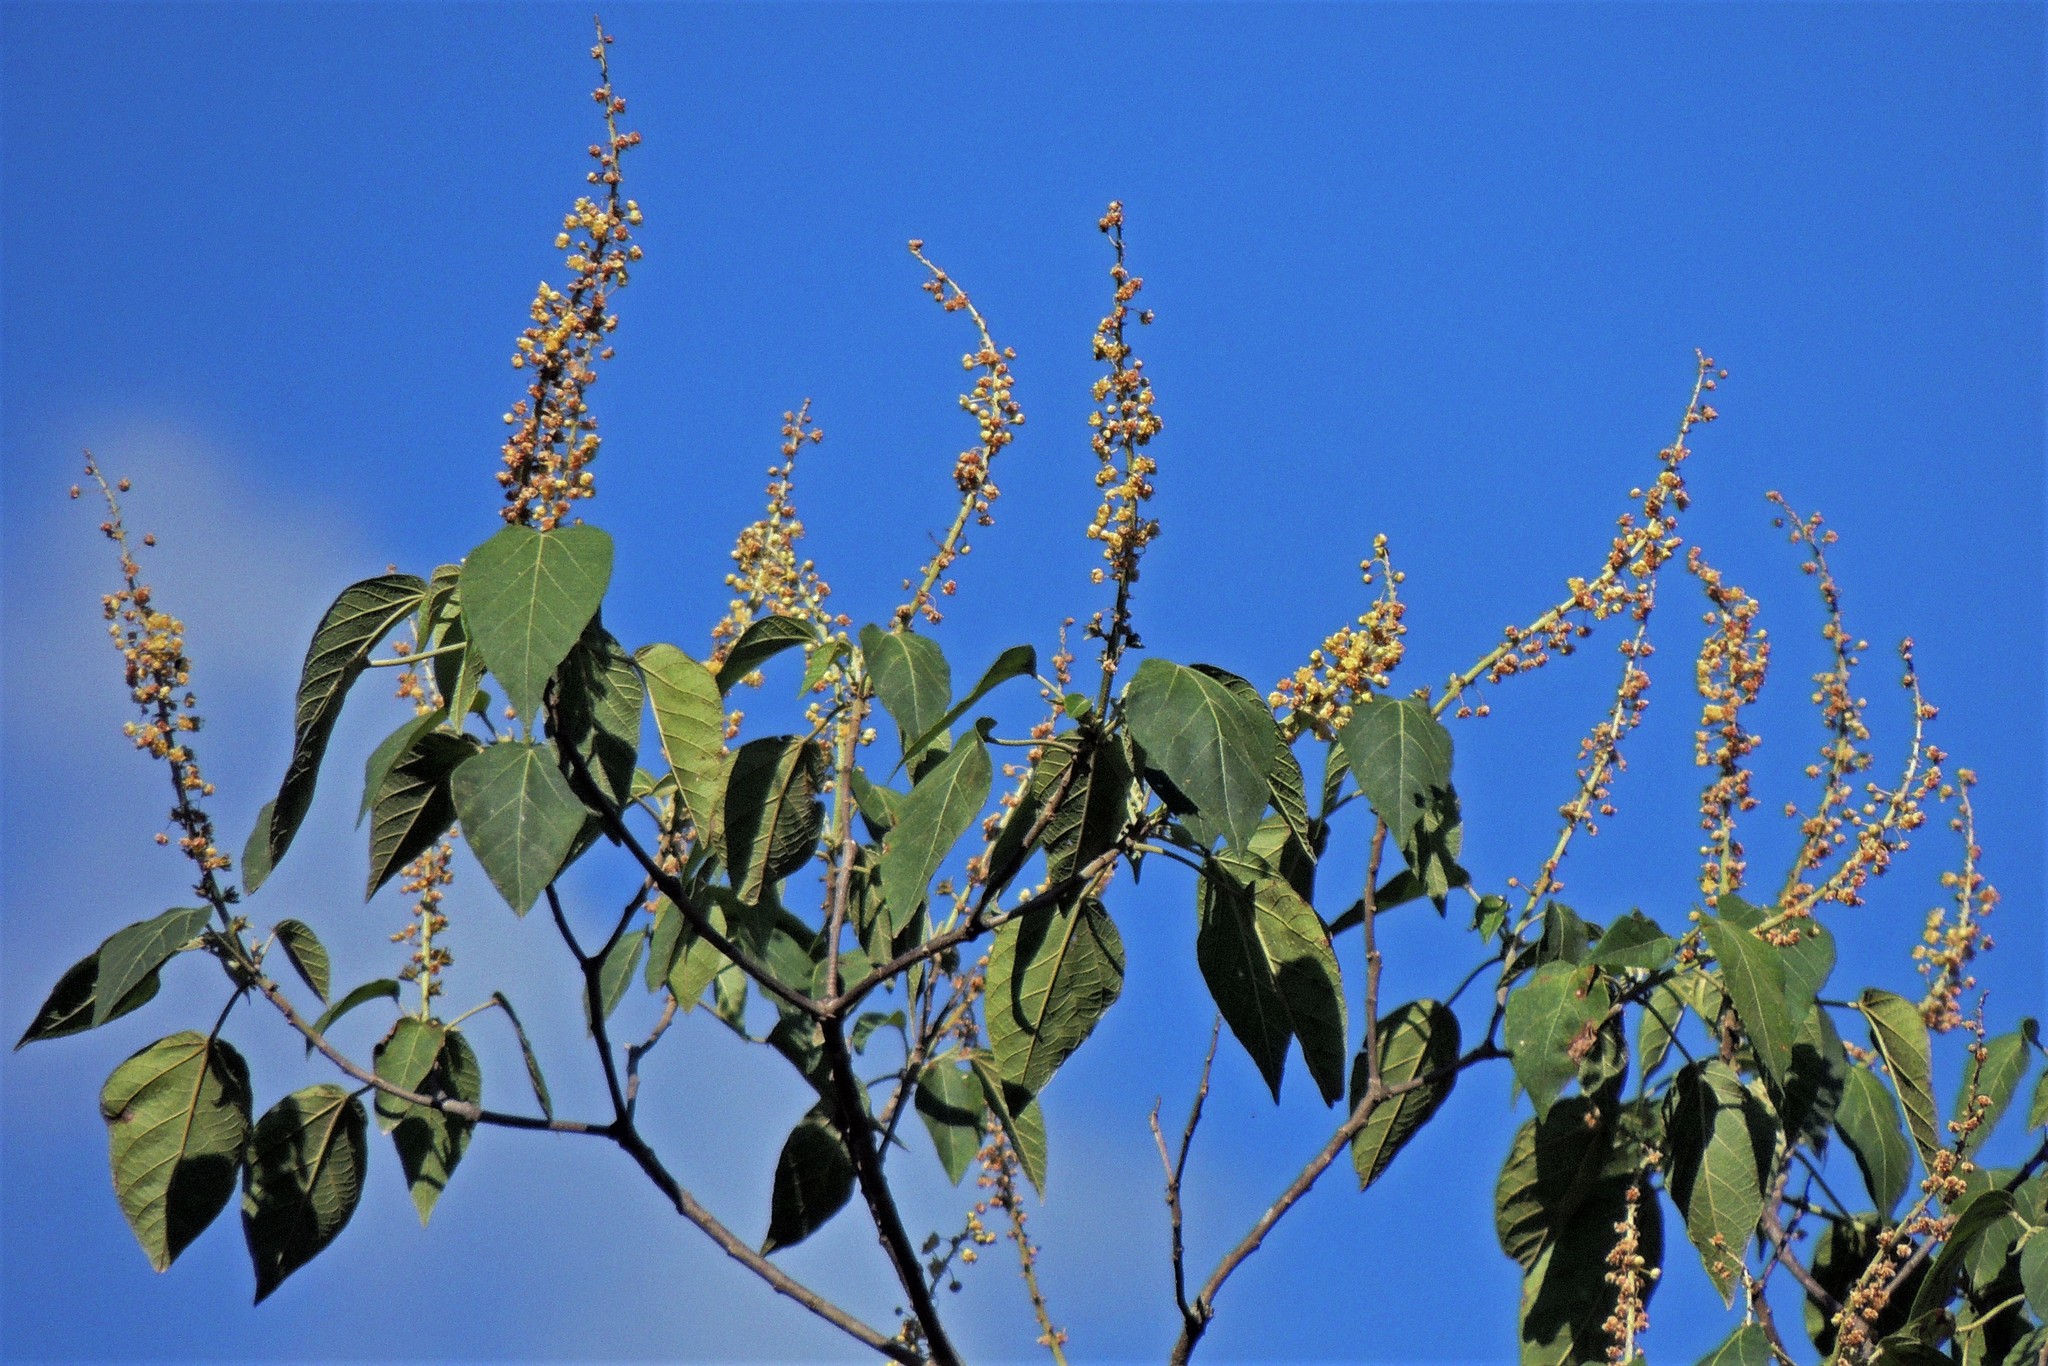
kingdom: Plantae
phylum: Tracheophyta
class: Magnoliopsida
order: Malpighiales
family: Euphorbiaceae
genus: Croton
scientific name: Croton piluliferus
